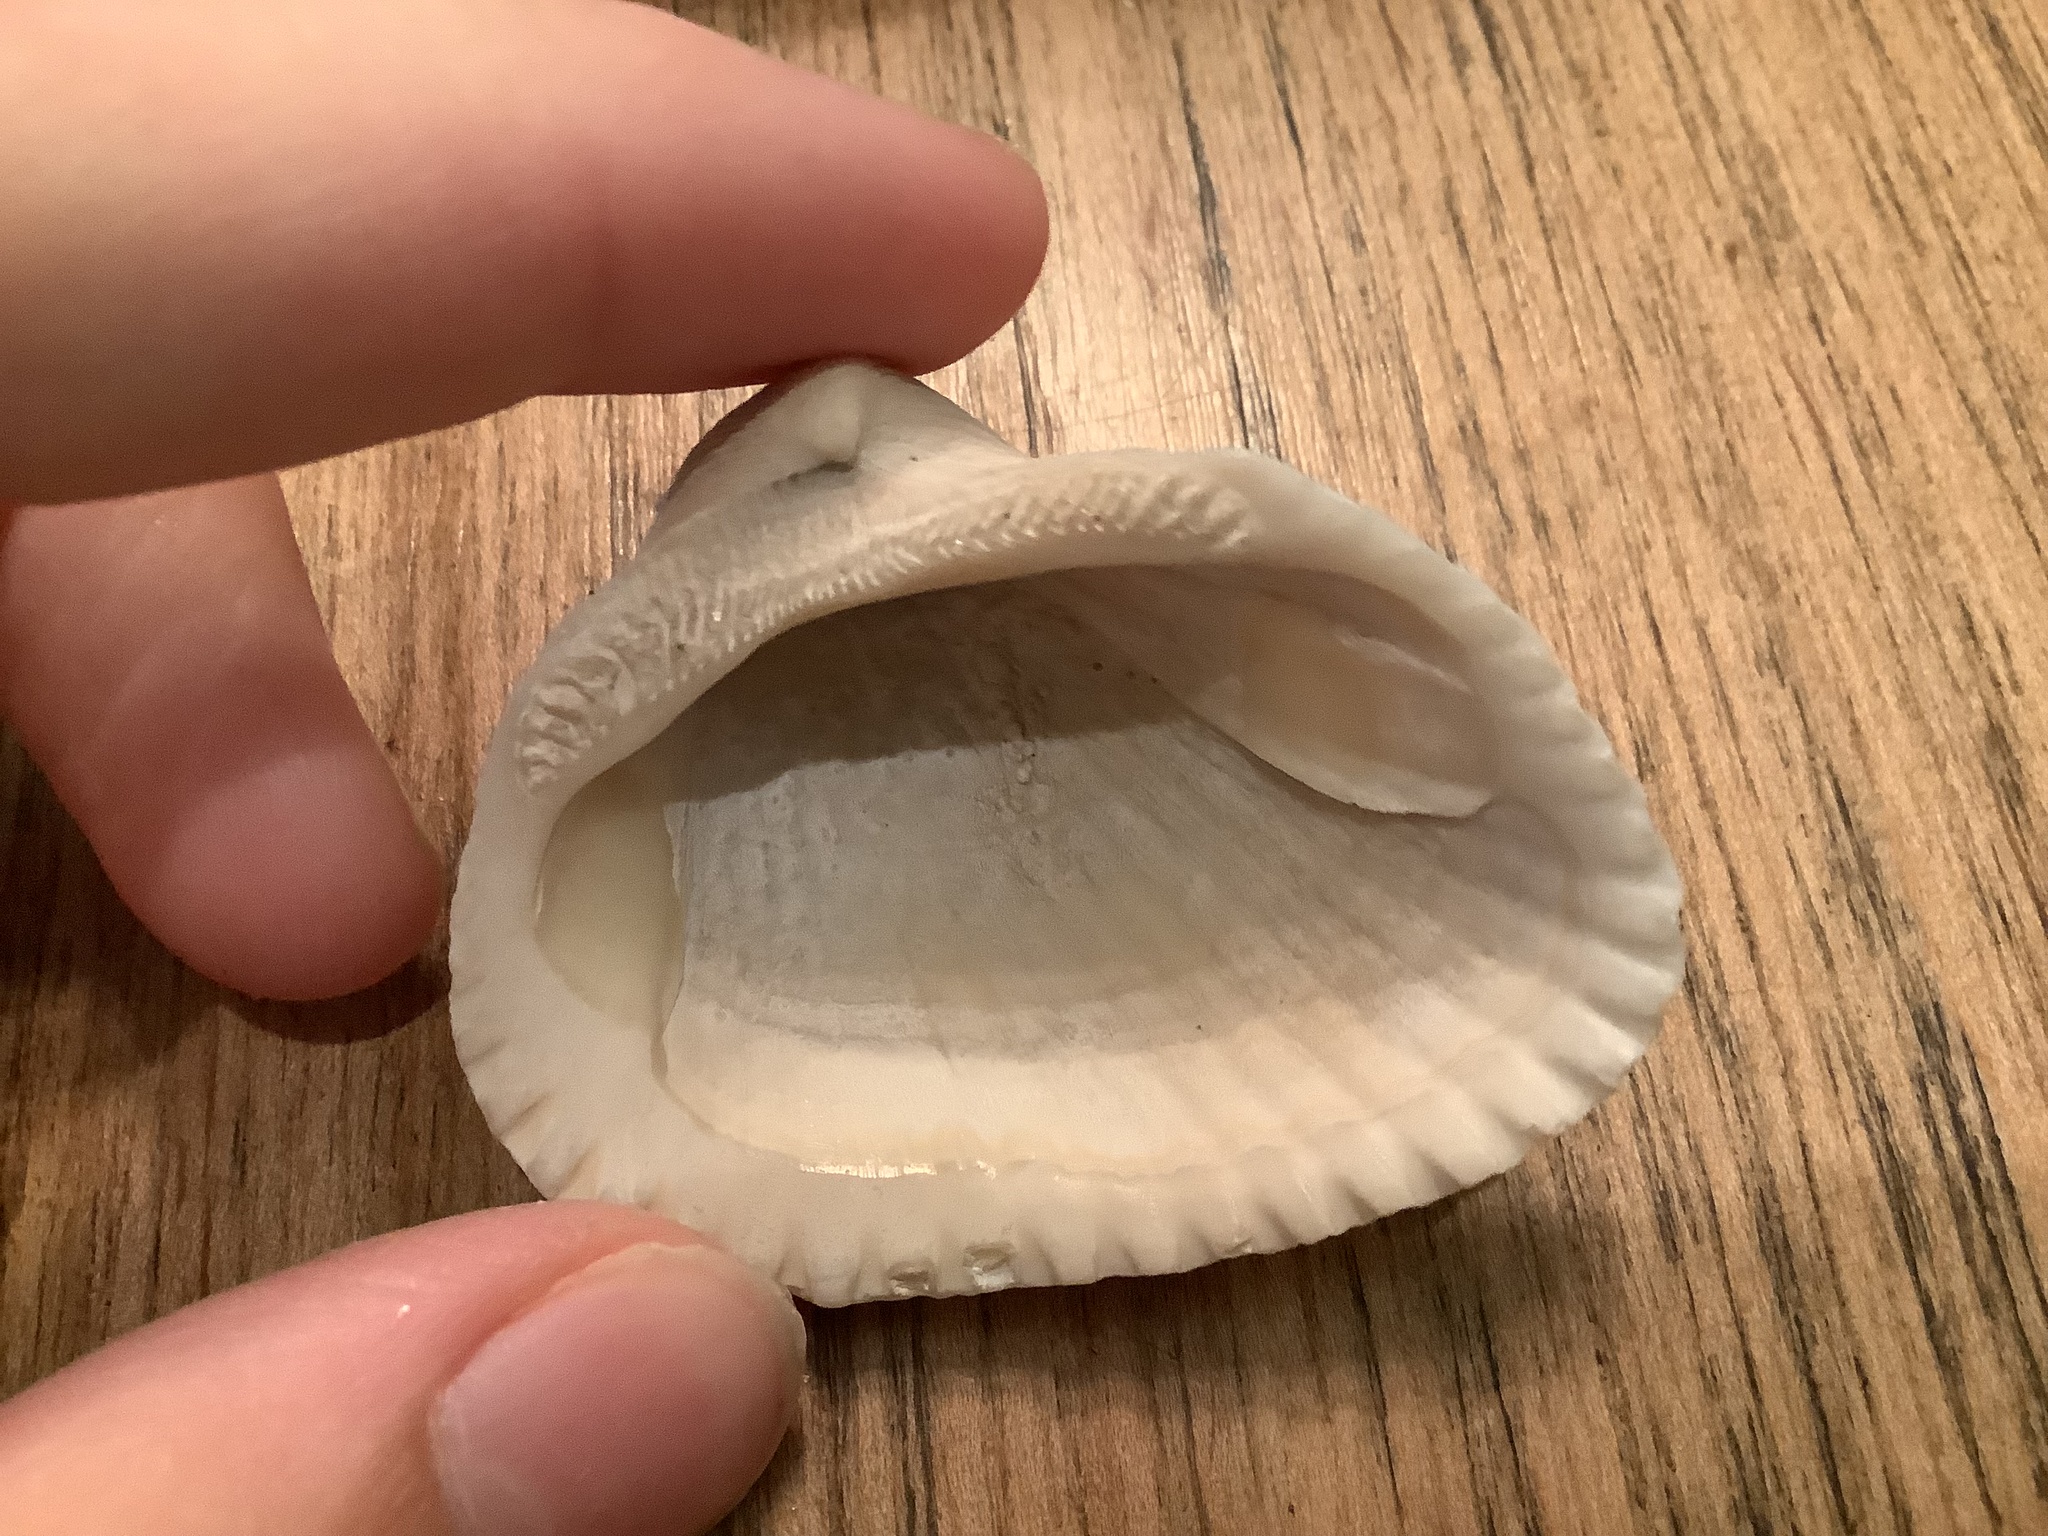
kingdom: Animalia
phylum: Mollusca
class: Bivalvia
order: Arcida
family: Noetiidae
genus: Noetia
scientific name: Noetia ponderosa
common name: Ponderous ark
